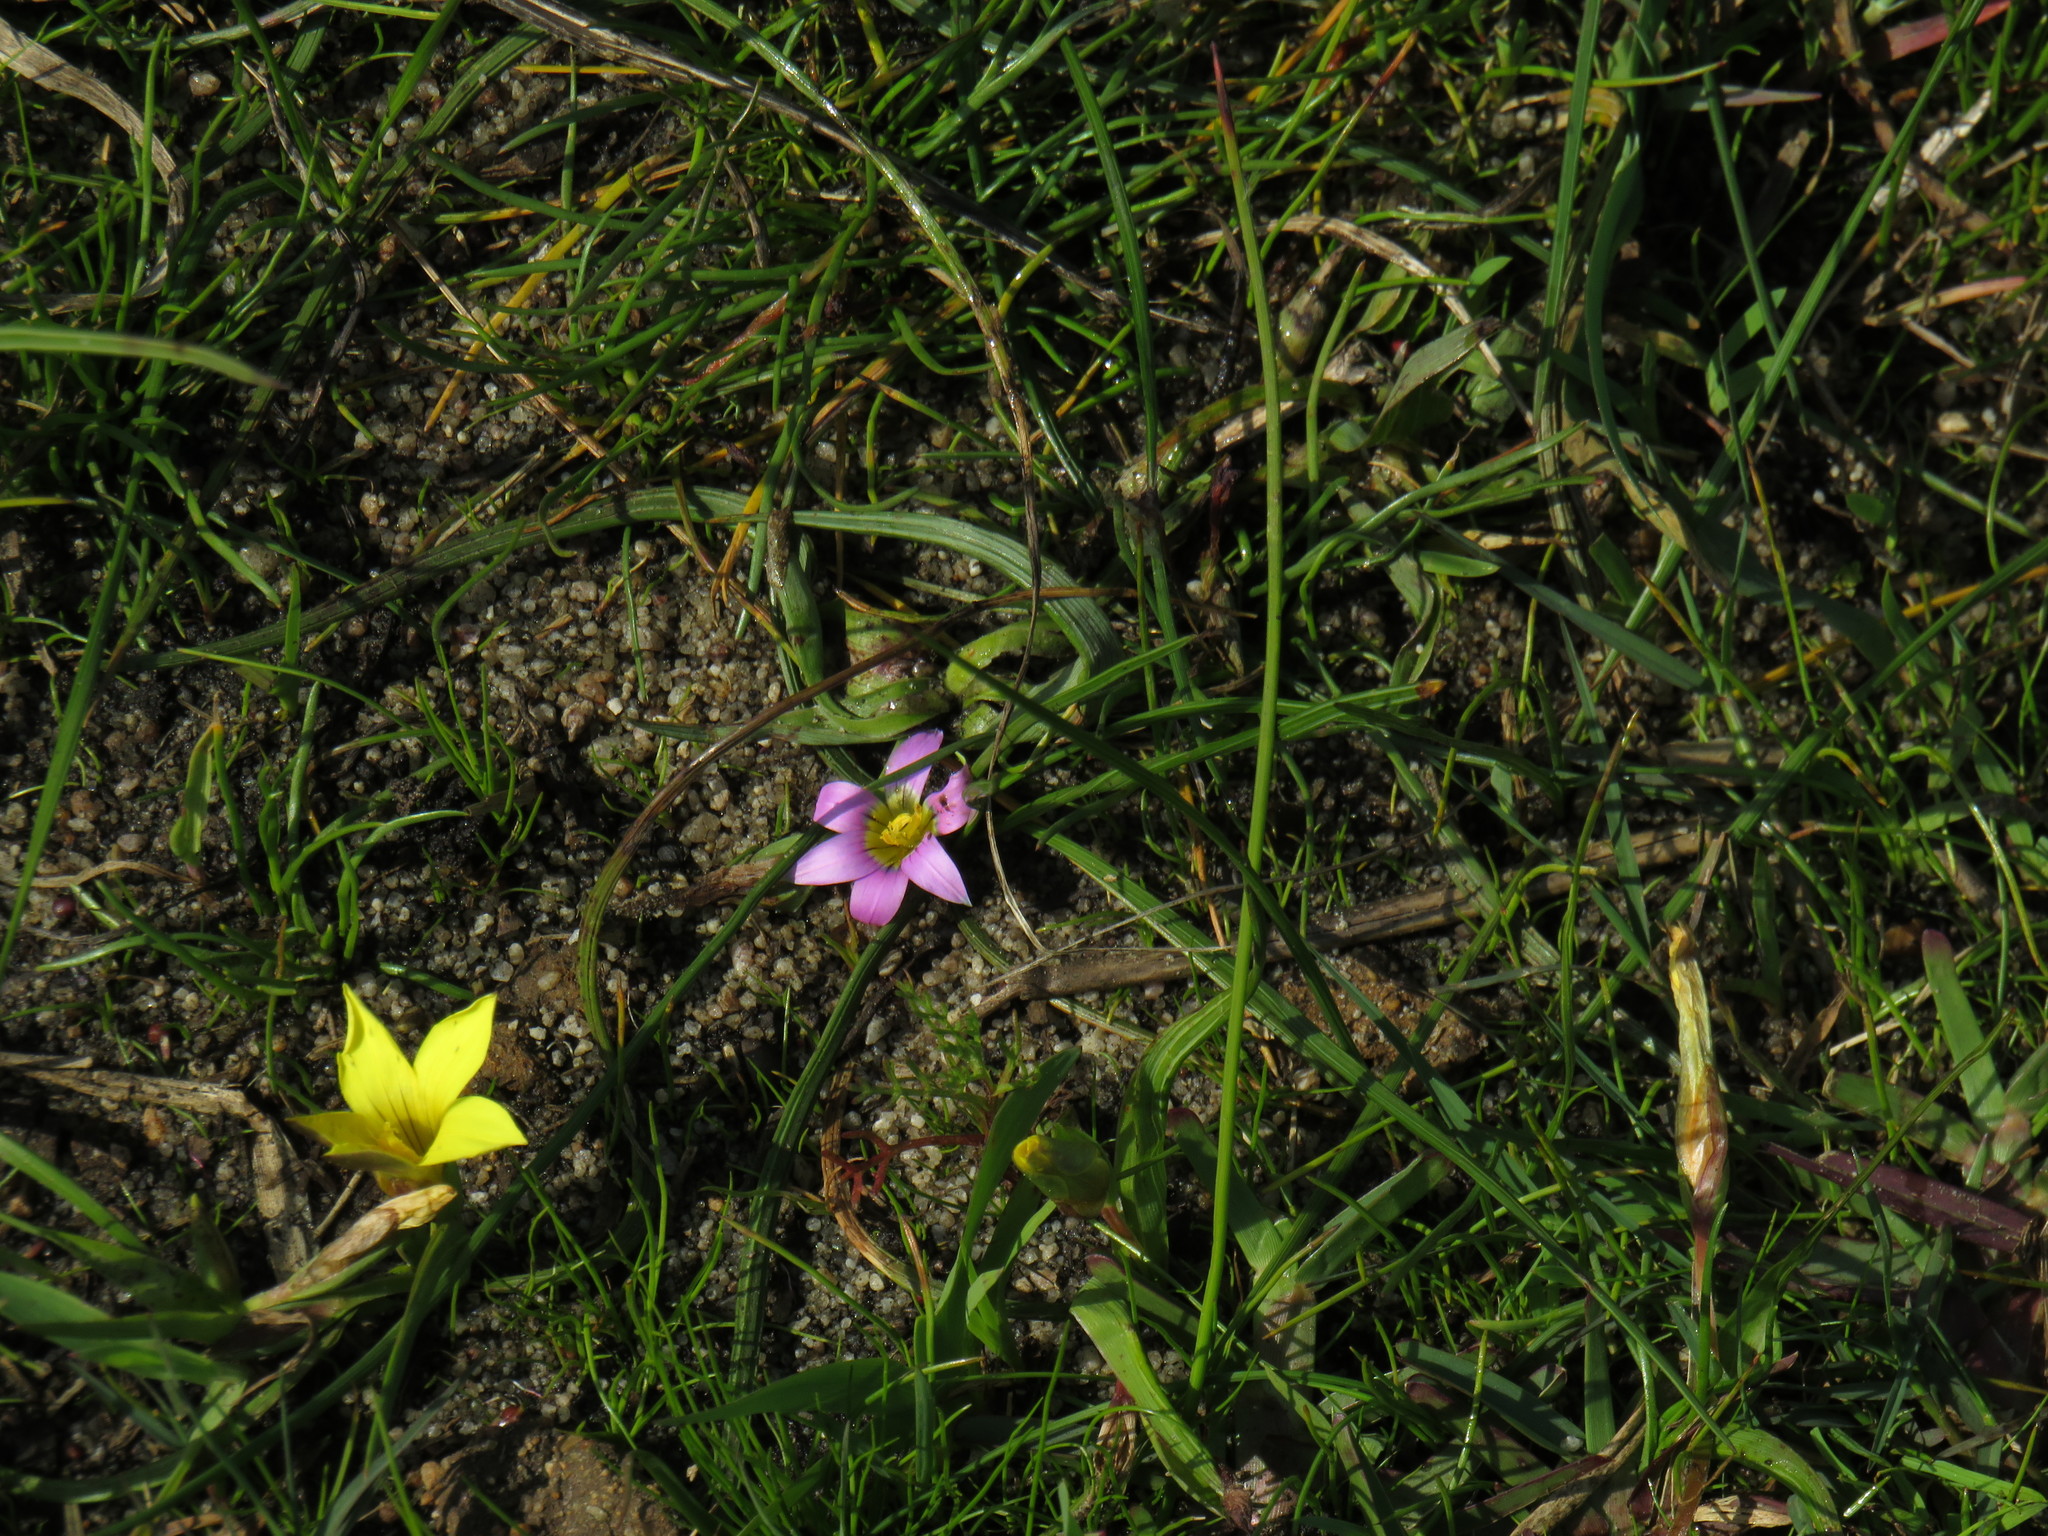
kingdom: Plantae
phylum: Tracheophyta
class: Liliopsida
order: Asparagales
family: Iridaceae
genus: Romulea
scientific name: Romulea rosea
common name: Oniongrass
